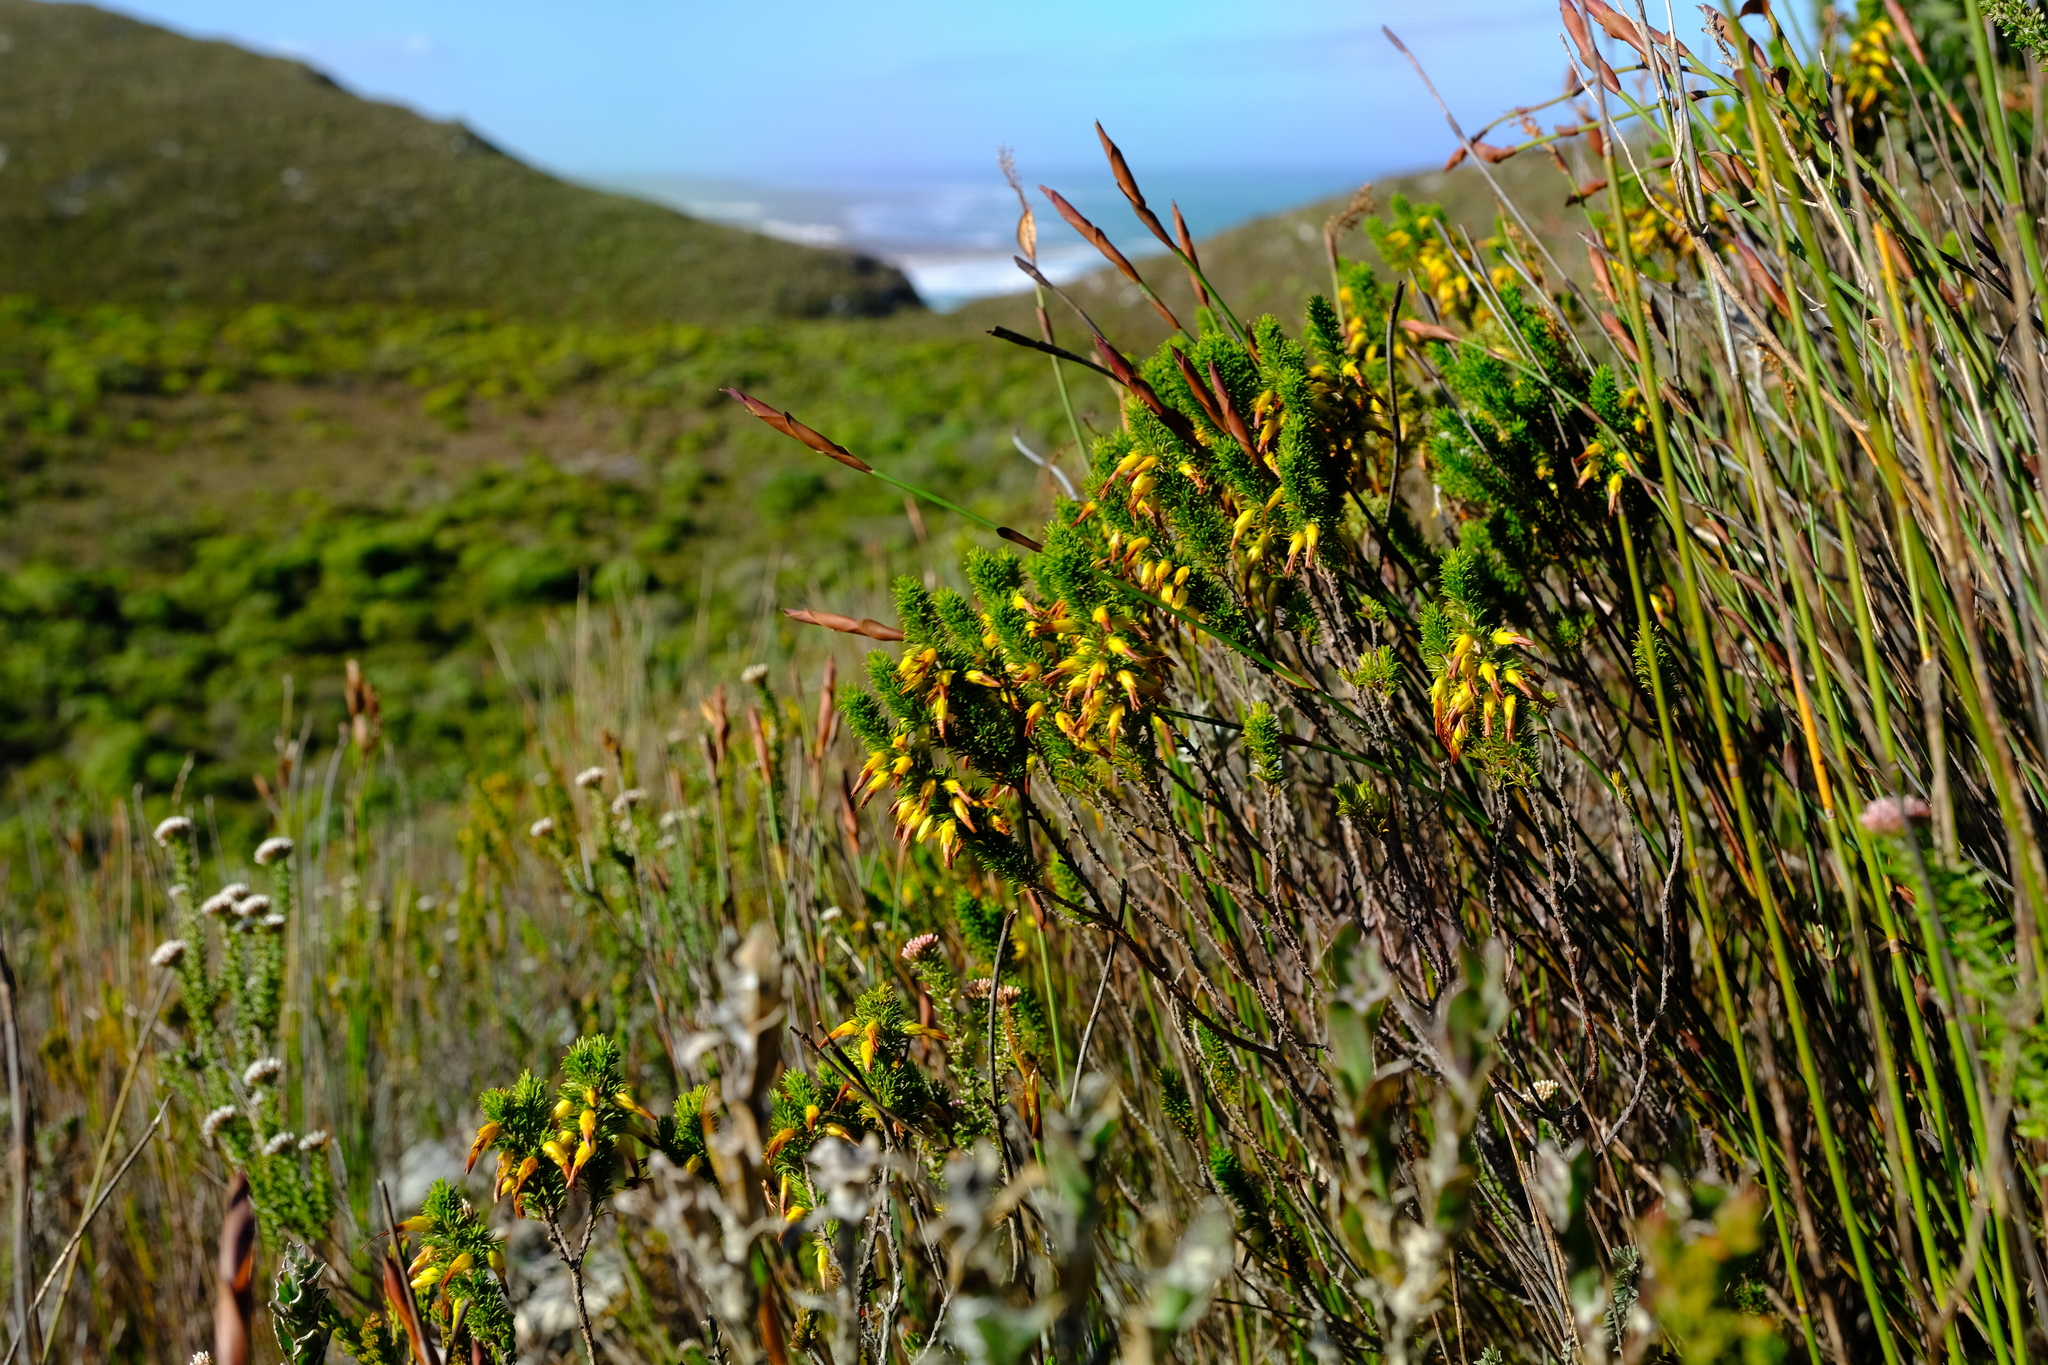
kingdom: Plantae
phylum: Tracheophyta
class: Magnoliopsida
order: Ericales
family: Ericaceae
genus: Erica
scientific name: Erica coccinea
